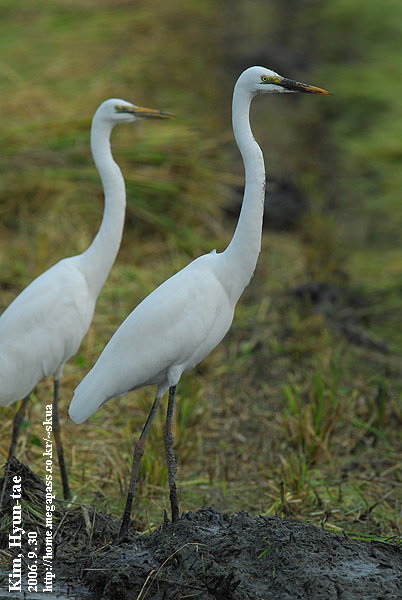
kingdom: Animalia
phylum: Chordata
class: Aves
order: Pelecaniformes
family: Ardeidae
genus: Ardea
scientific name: Ardea alba
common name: Great egret
